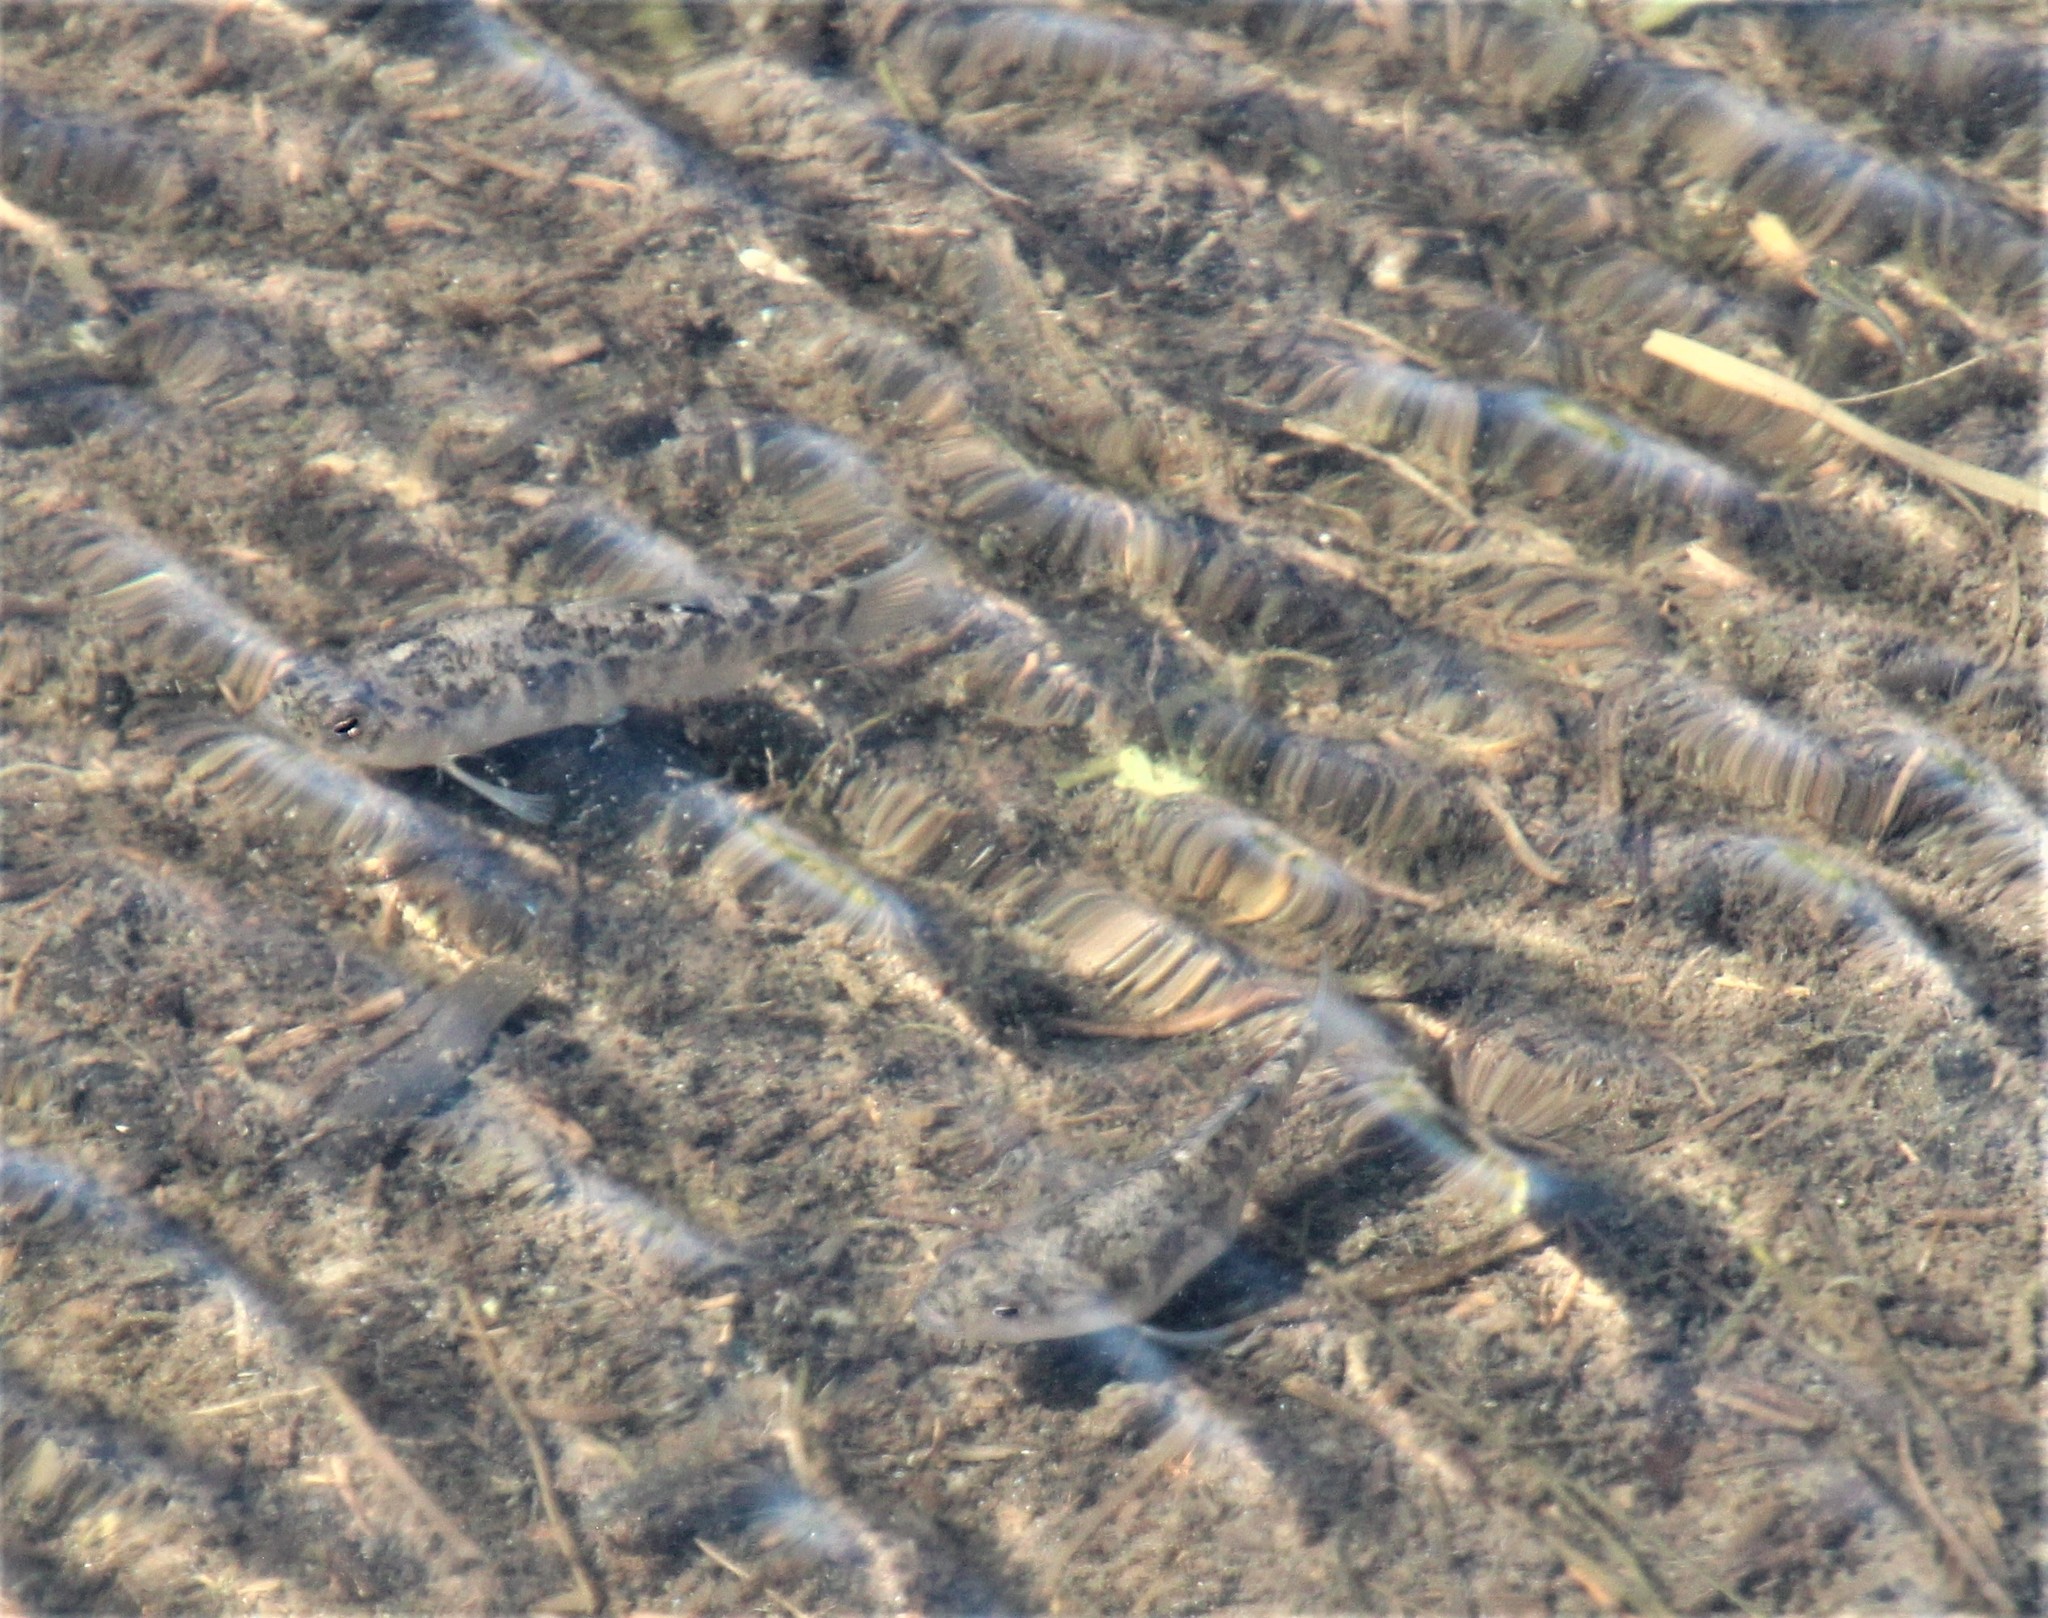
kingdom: Animalia
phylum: Chordata
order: Cyprinodontiformes
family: Cyprinodontidae
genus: Cyprinodon
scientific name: Cyprinodon variegatus
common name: Sheepshead minnow
